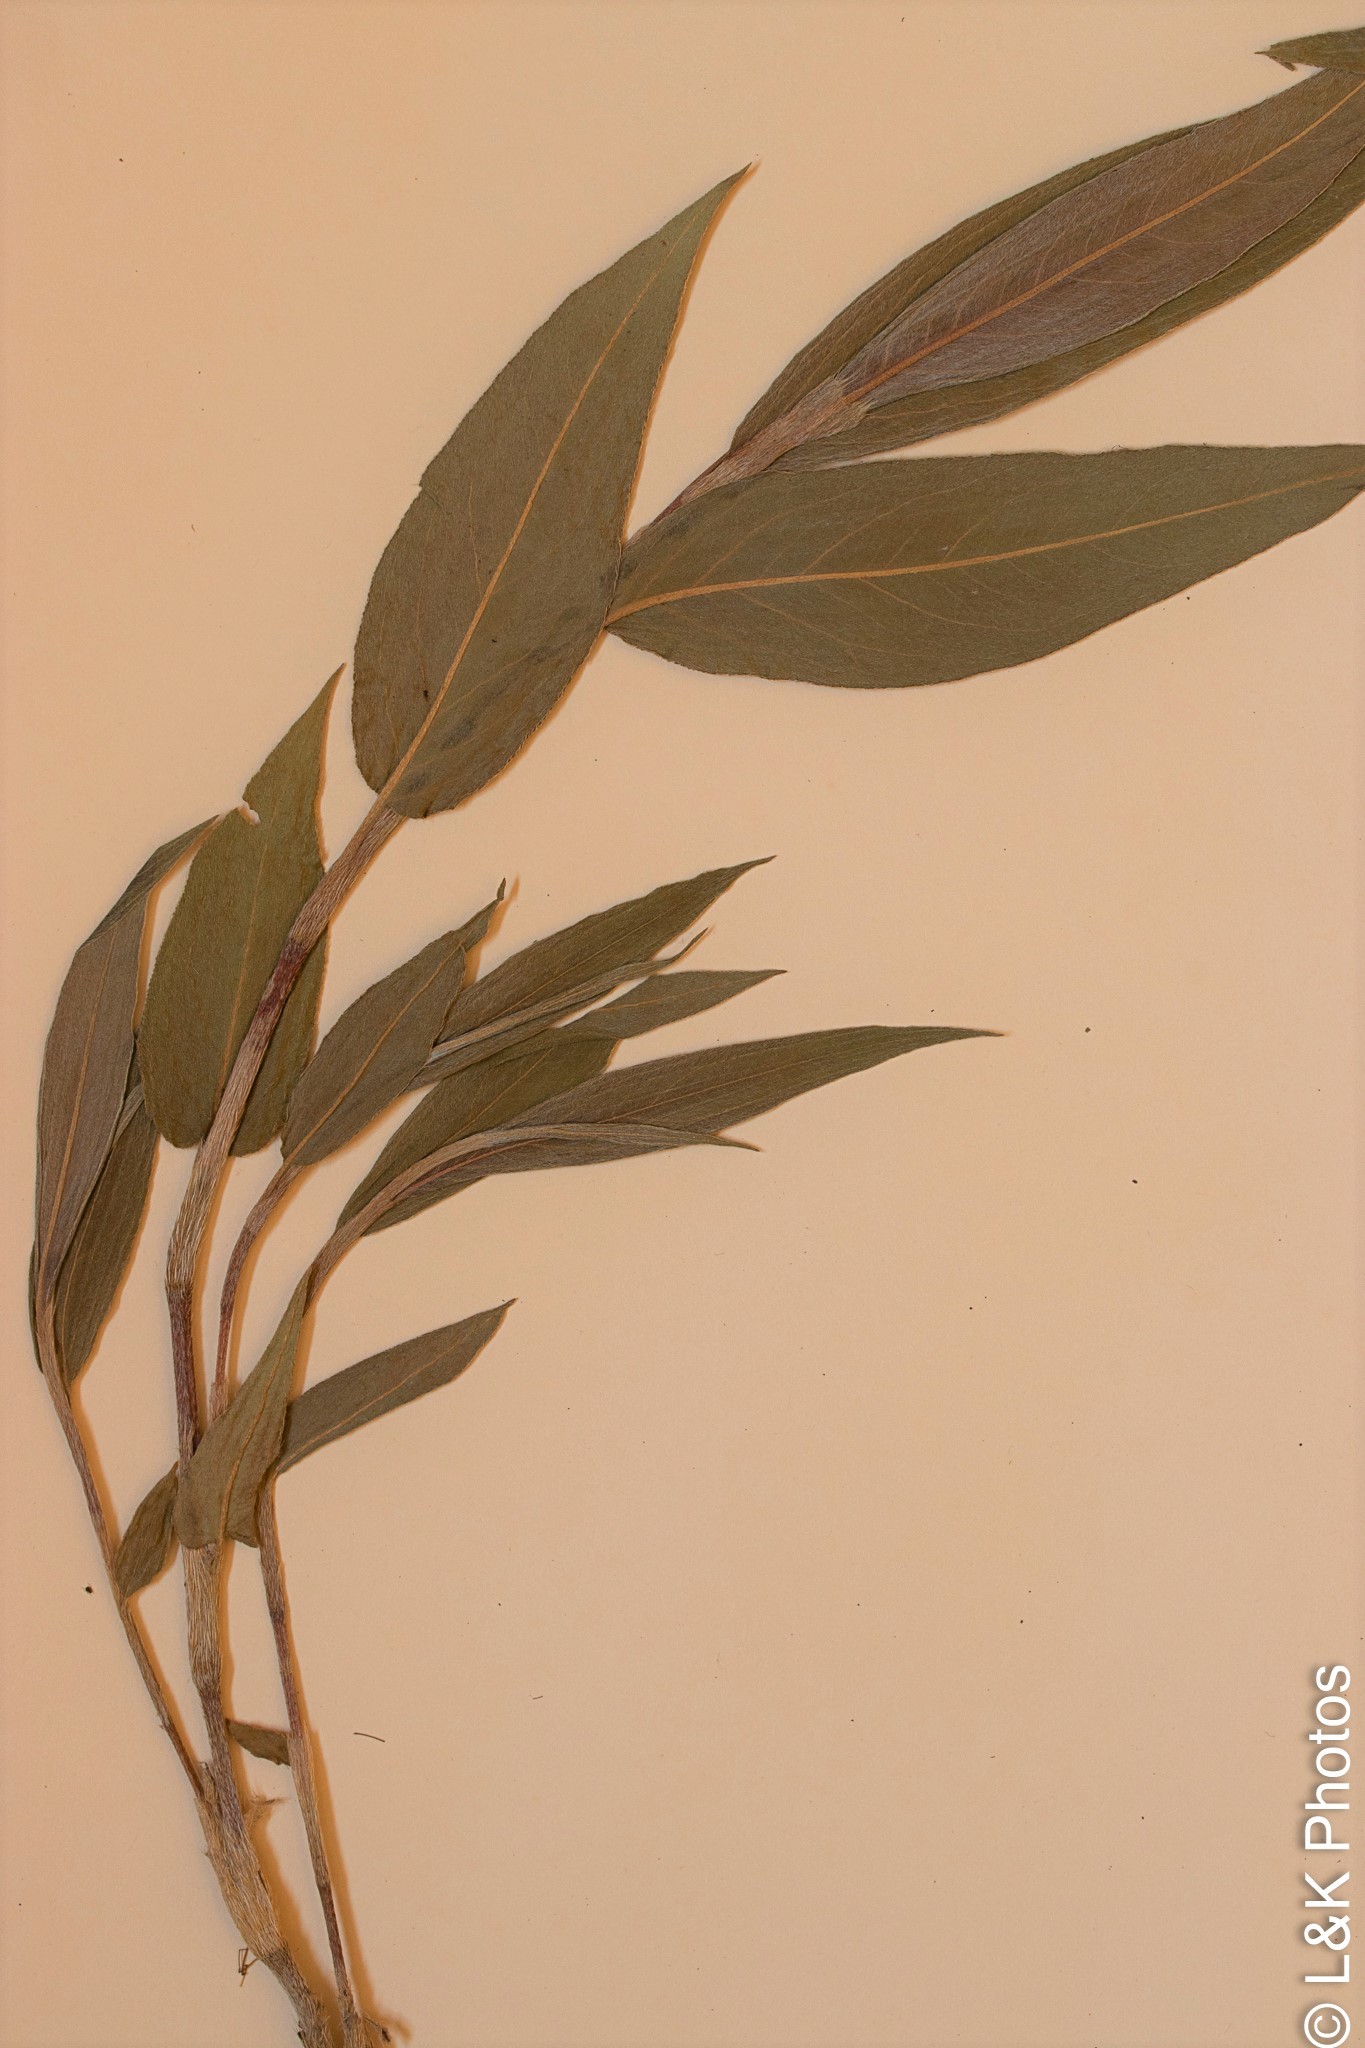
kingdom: Plantae
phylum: Tracheophyta
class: Magnoliopsida
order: Caryophyllales
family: Polygonaceae
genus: Persicaria
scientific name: Persicaria amphibia
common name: Amphibious bistort
